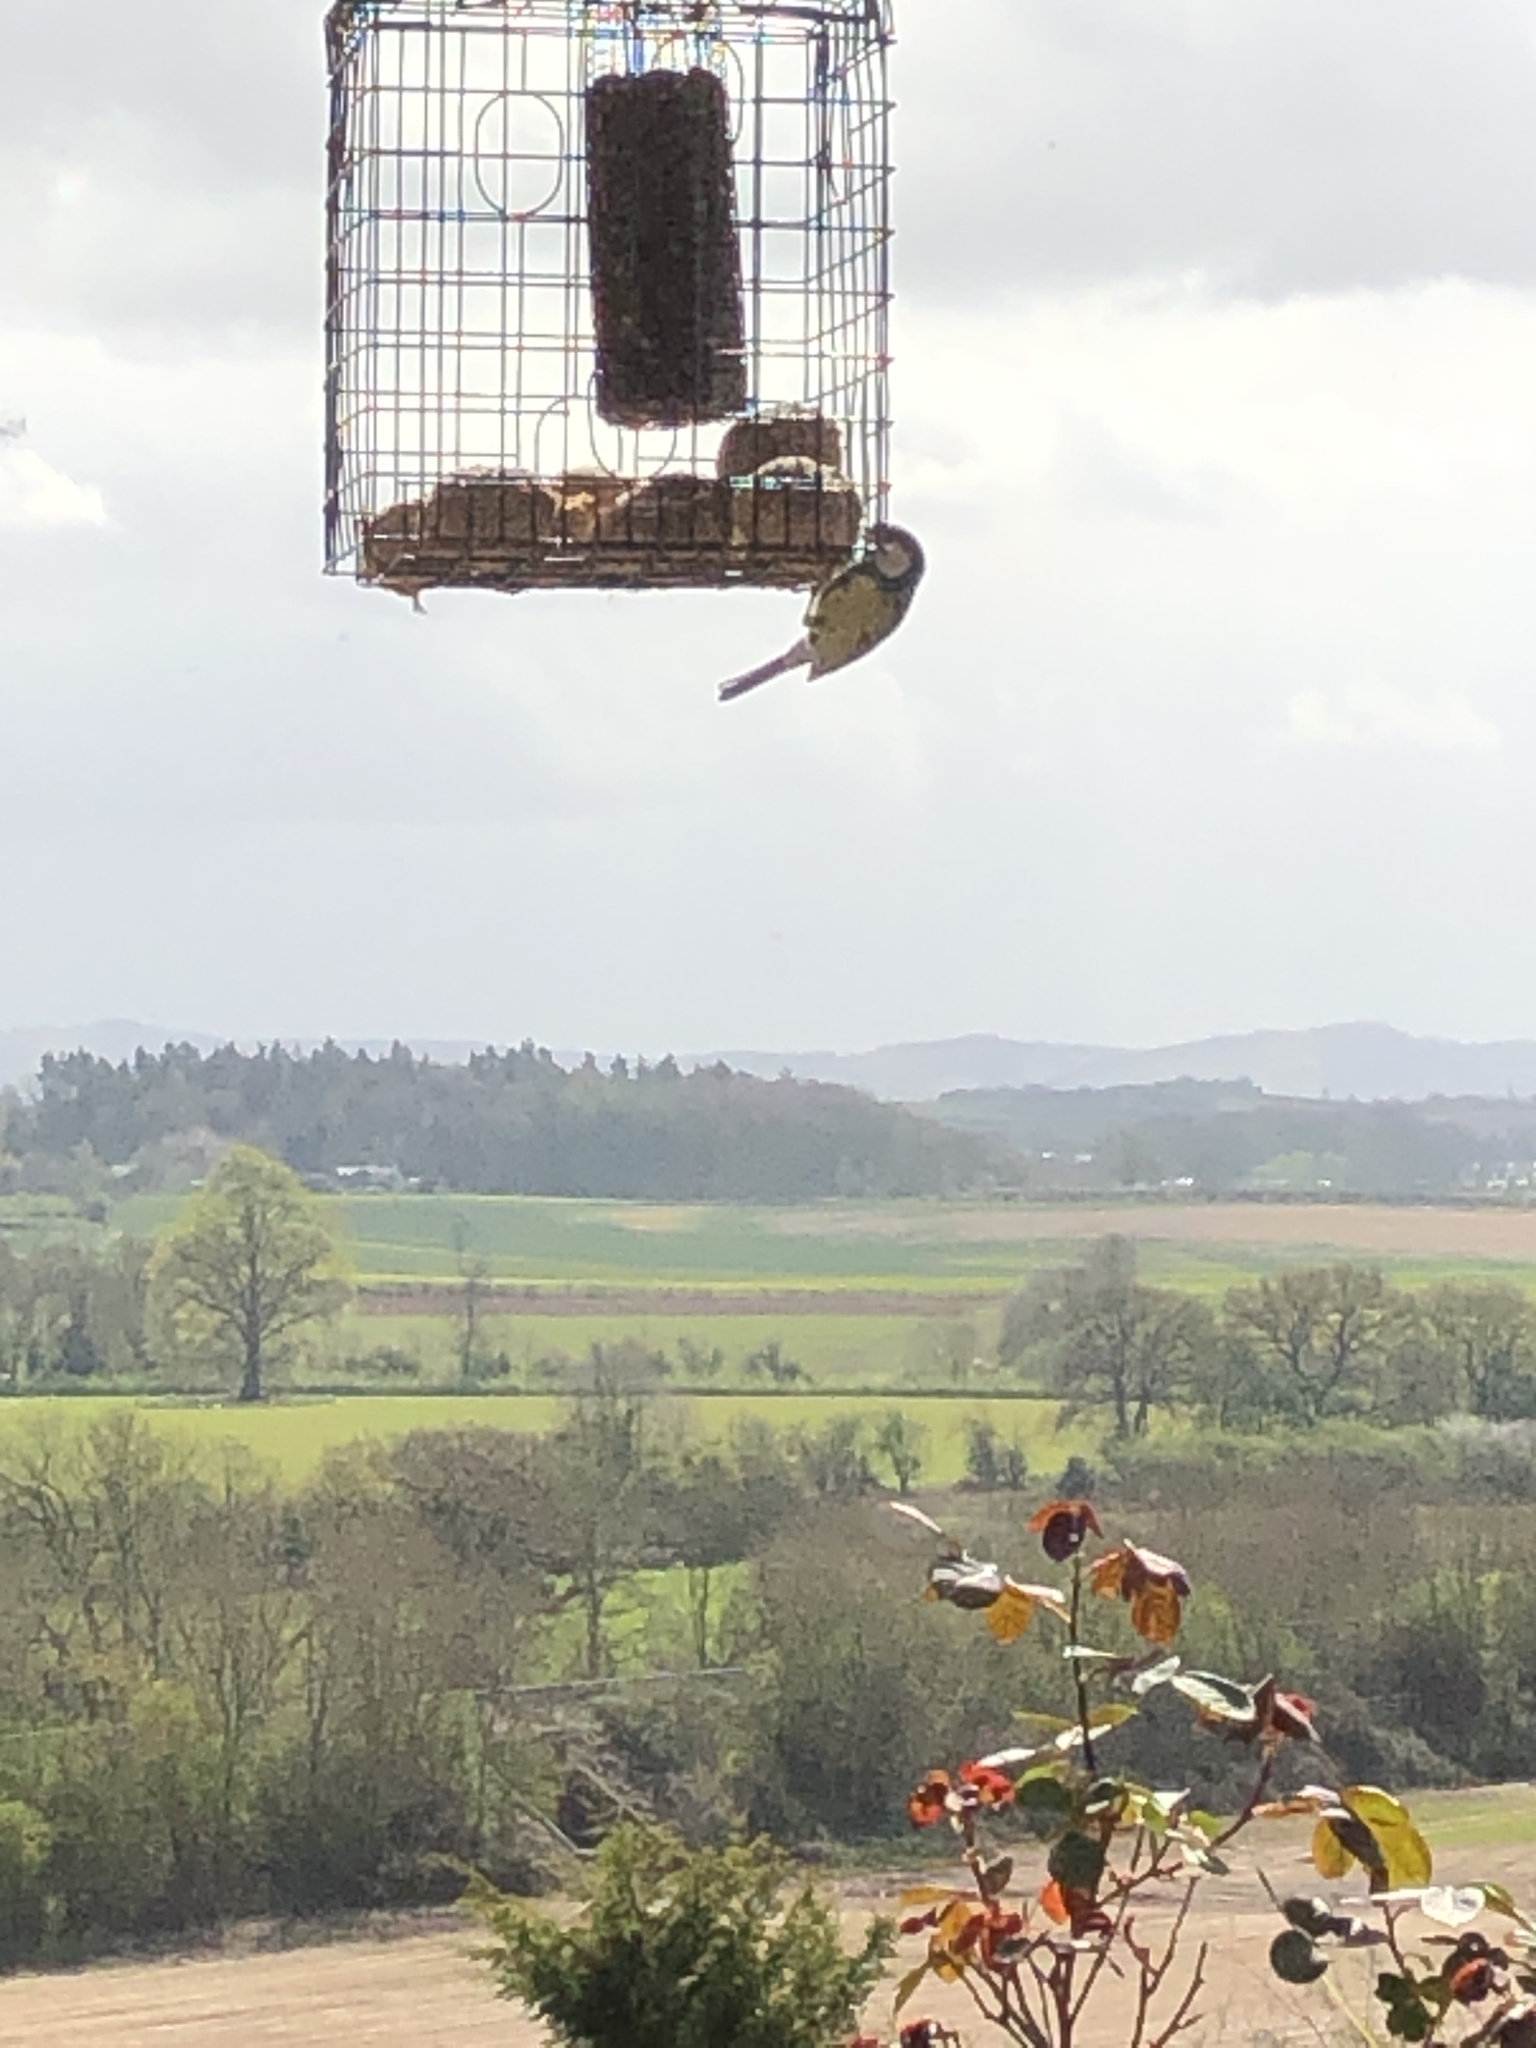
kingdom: Animalia
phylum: Chordata
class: Aves
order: Passeriformes
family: Paridae
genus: Parus
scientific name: Parus major
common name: Great tit
